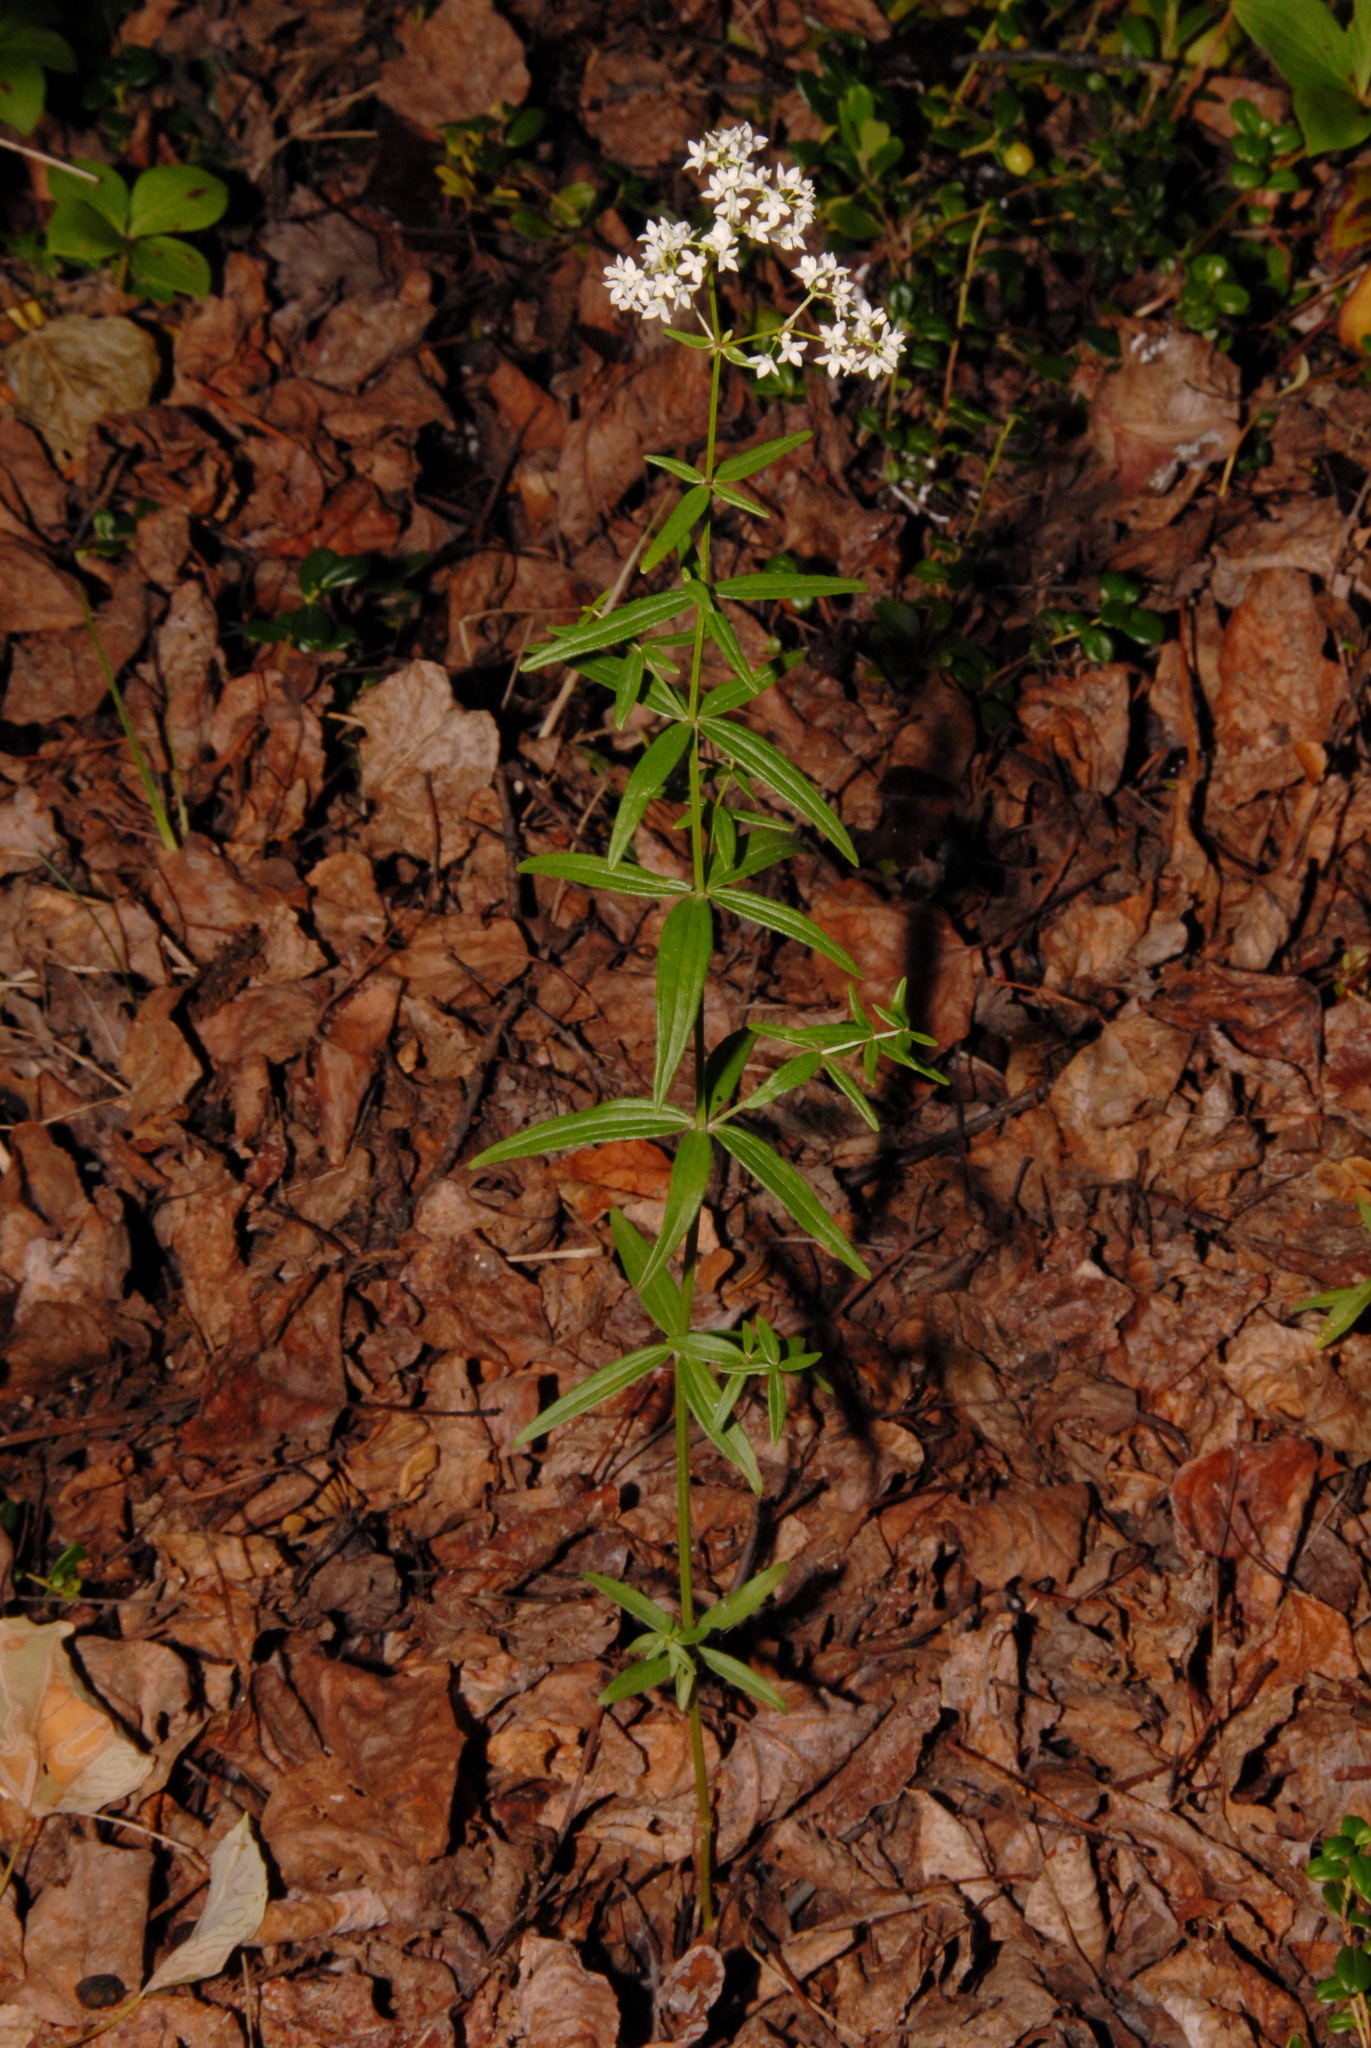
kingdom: Plantae
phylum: Tracheophyta
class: Magnoliopsida
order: Gentianales
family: Rubiaceae
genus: Galium
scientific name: Galium boreale
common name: Northern bedstraw
